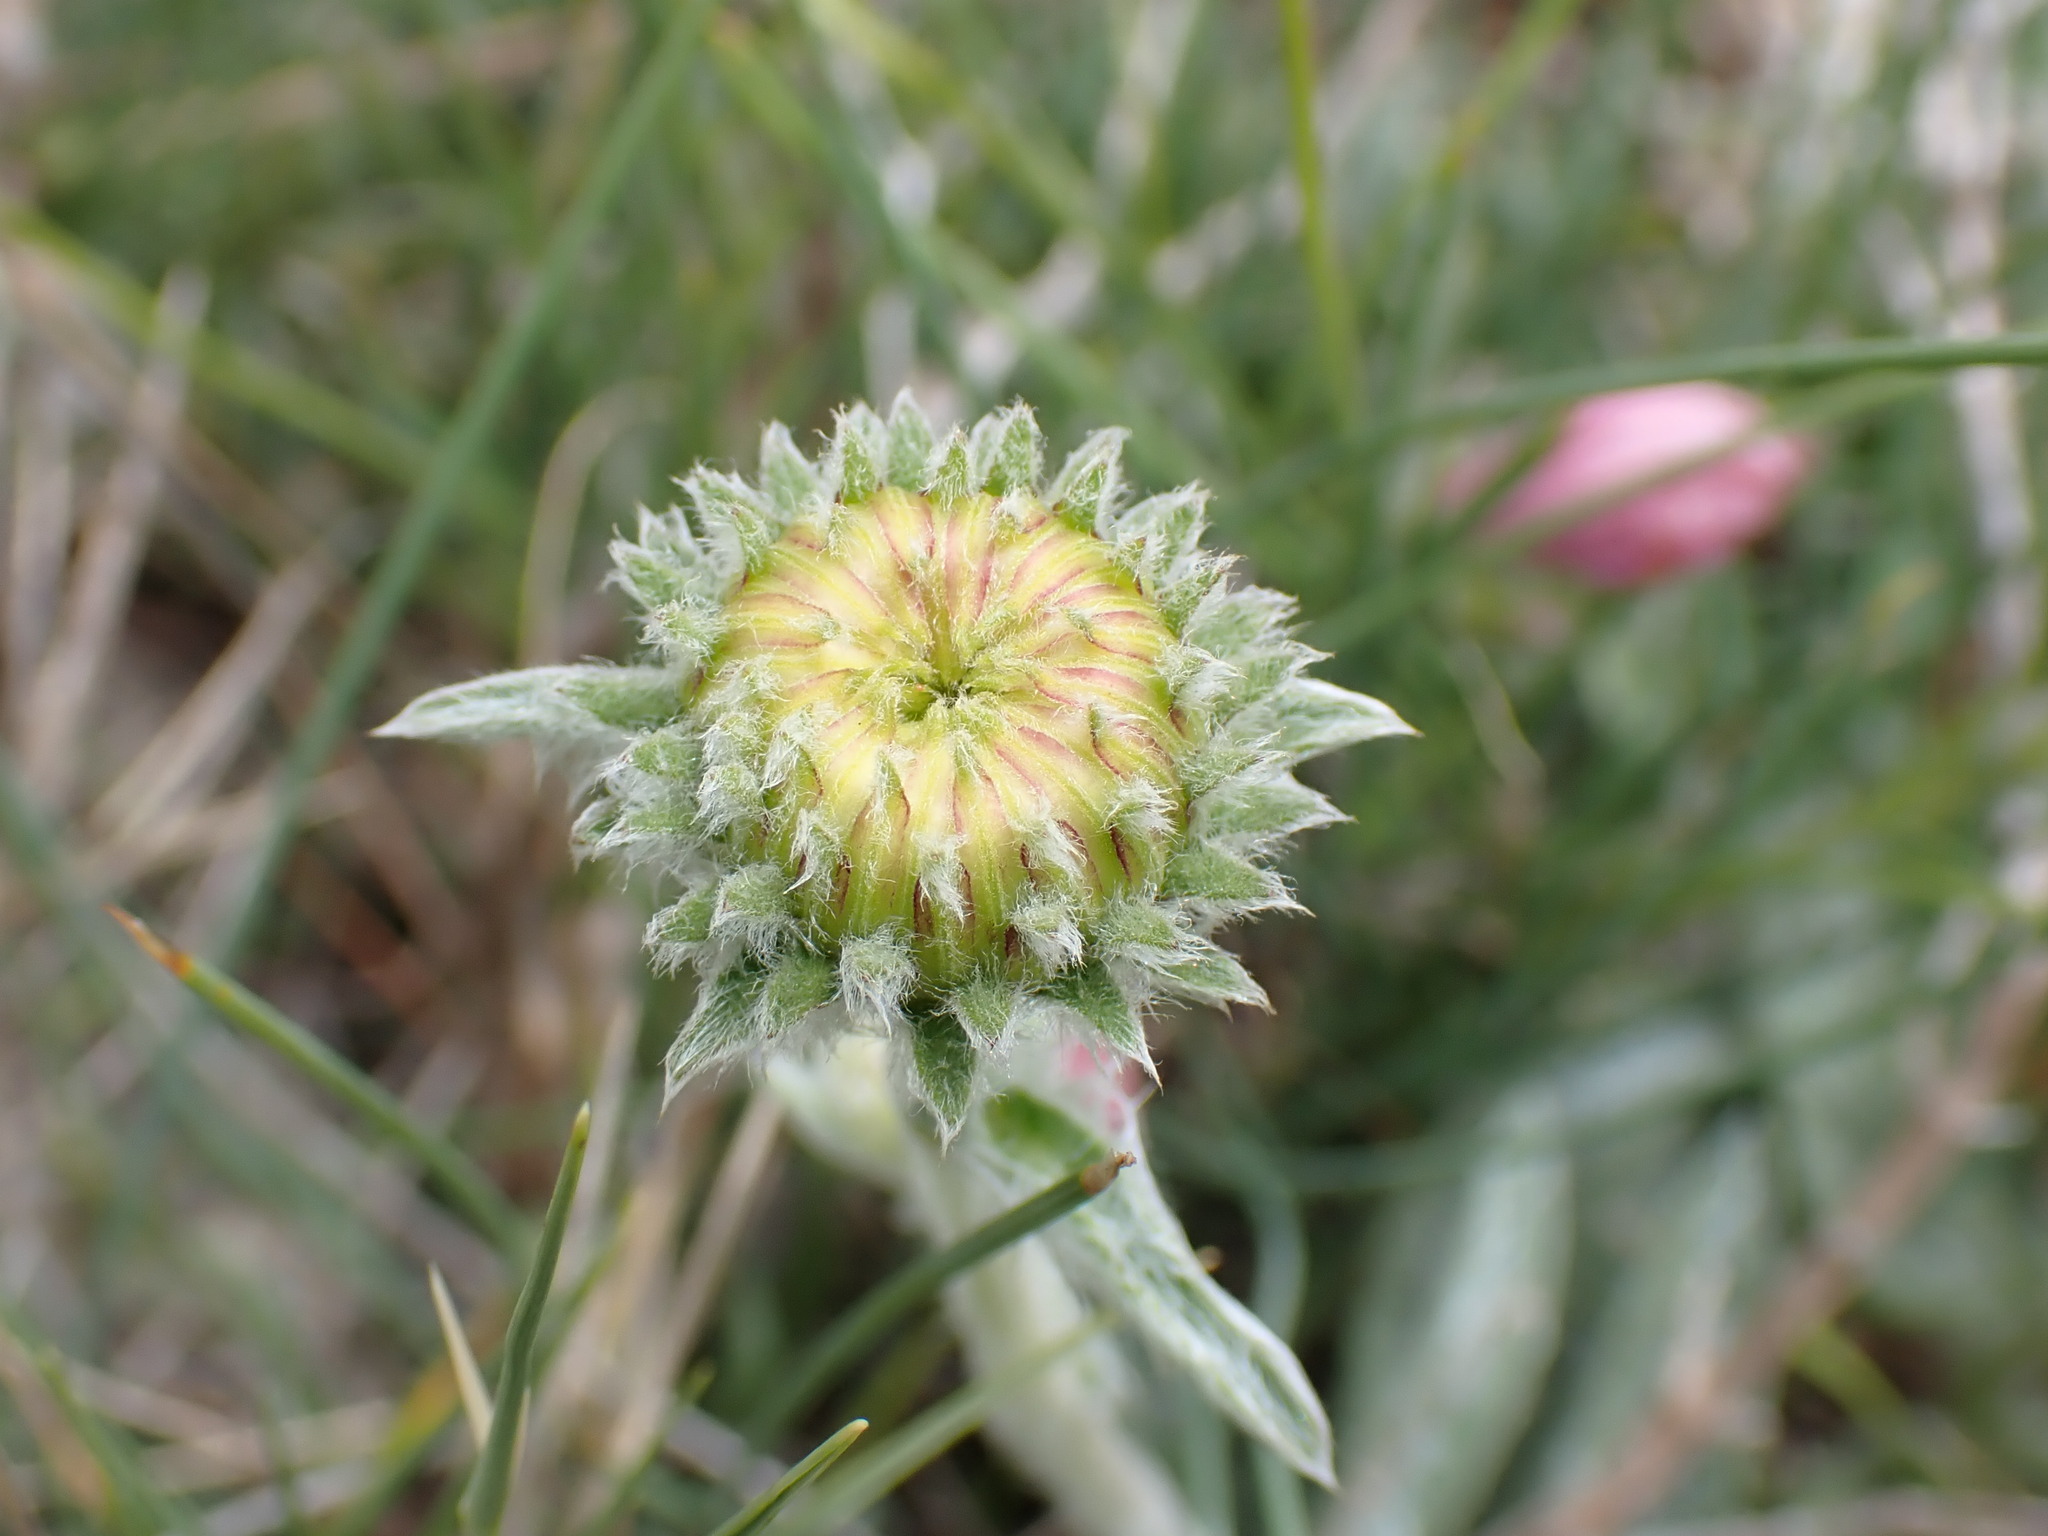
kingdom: Plantae
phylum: Tracheophyta
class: Magnoliopsida
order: Asterales
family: Asteraceae
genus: Pentanema
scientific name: Pentanema montanum
